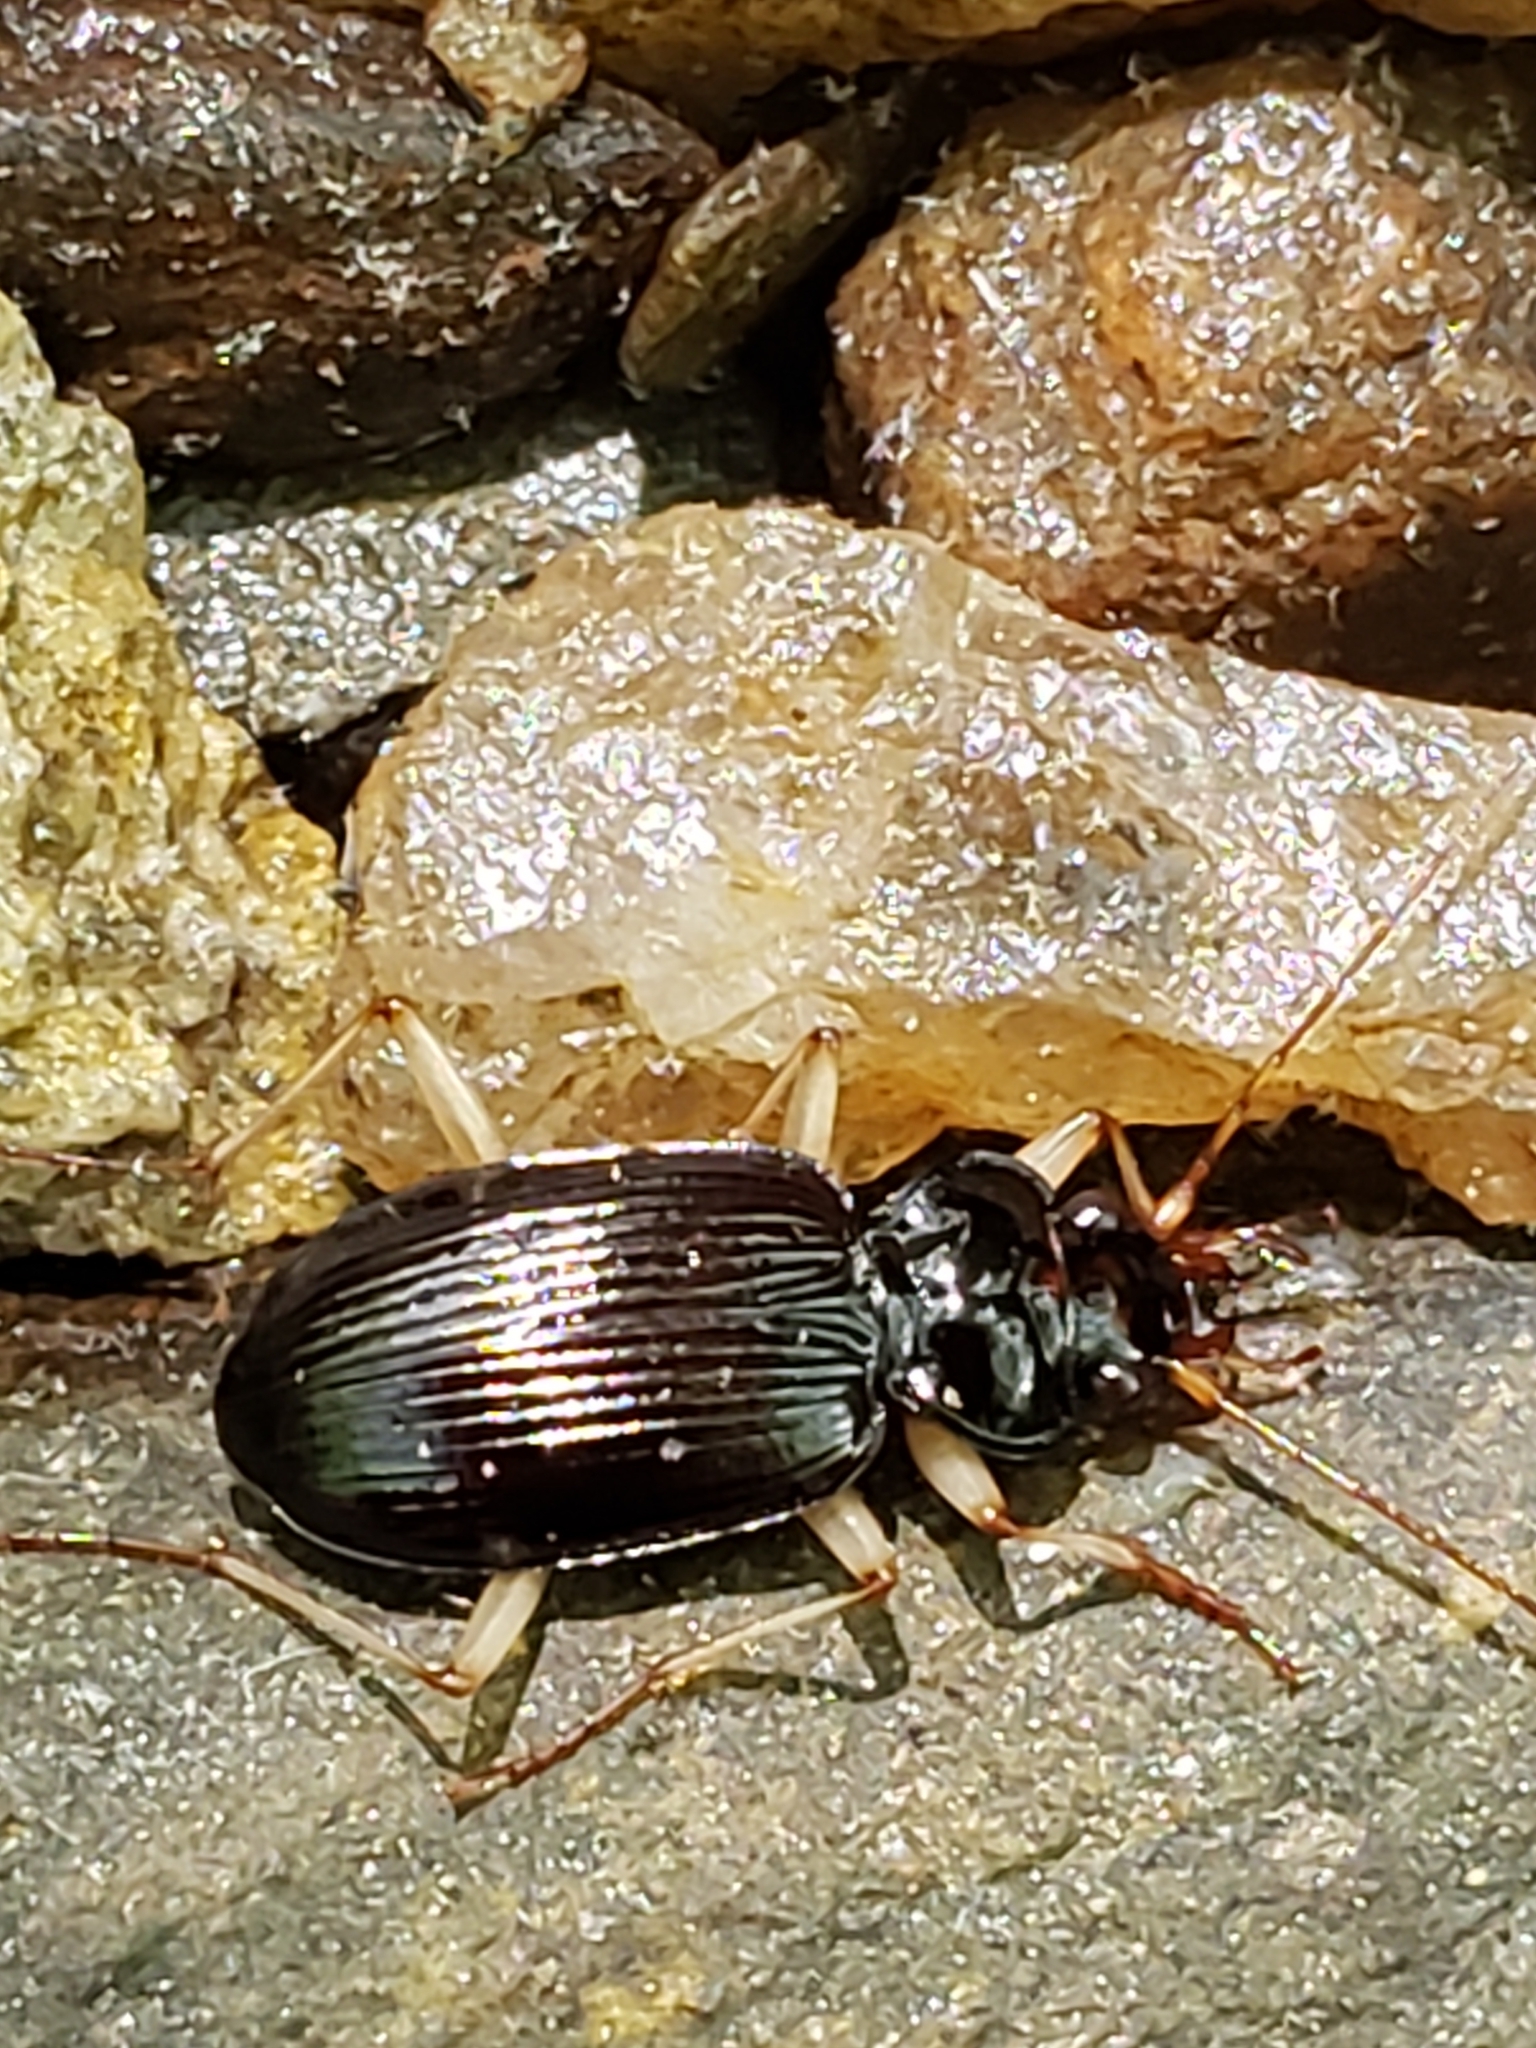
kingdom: Animalia
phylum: Arthropoda
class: Insecta
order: Coleoptera
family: Carabidae
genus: Nebria
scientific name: Nebria pallipes
